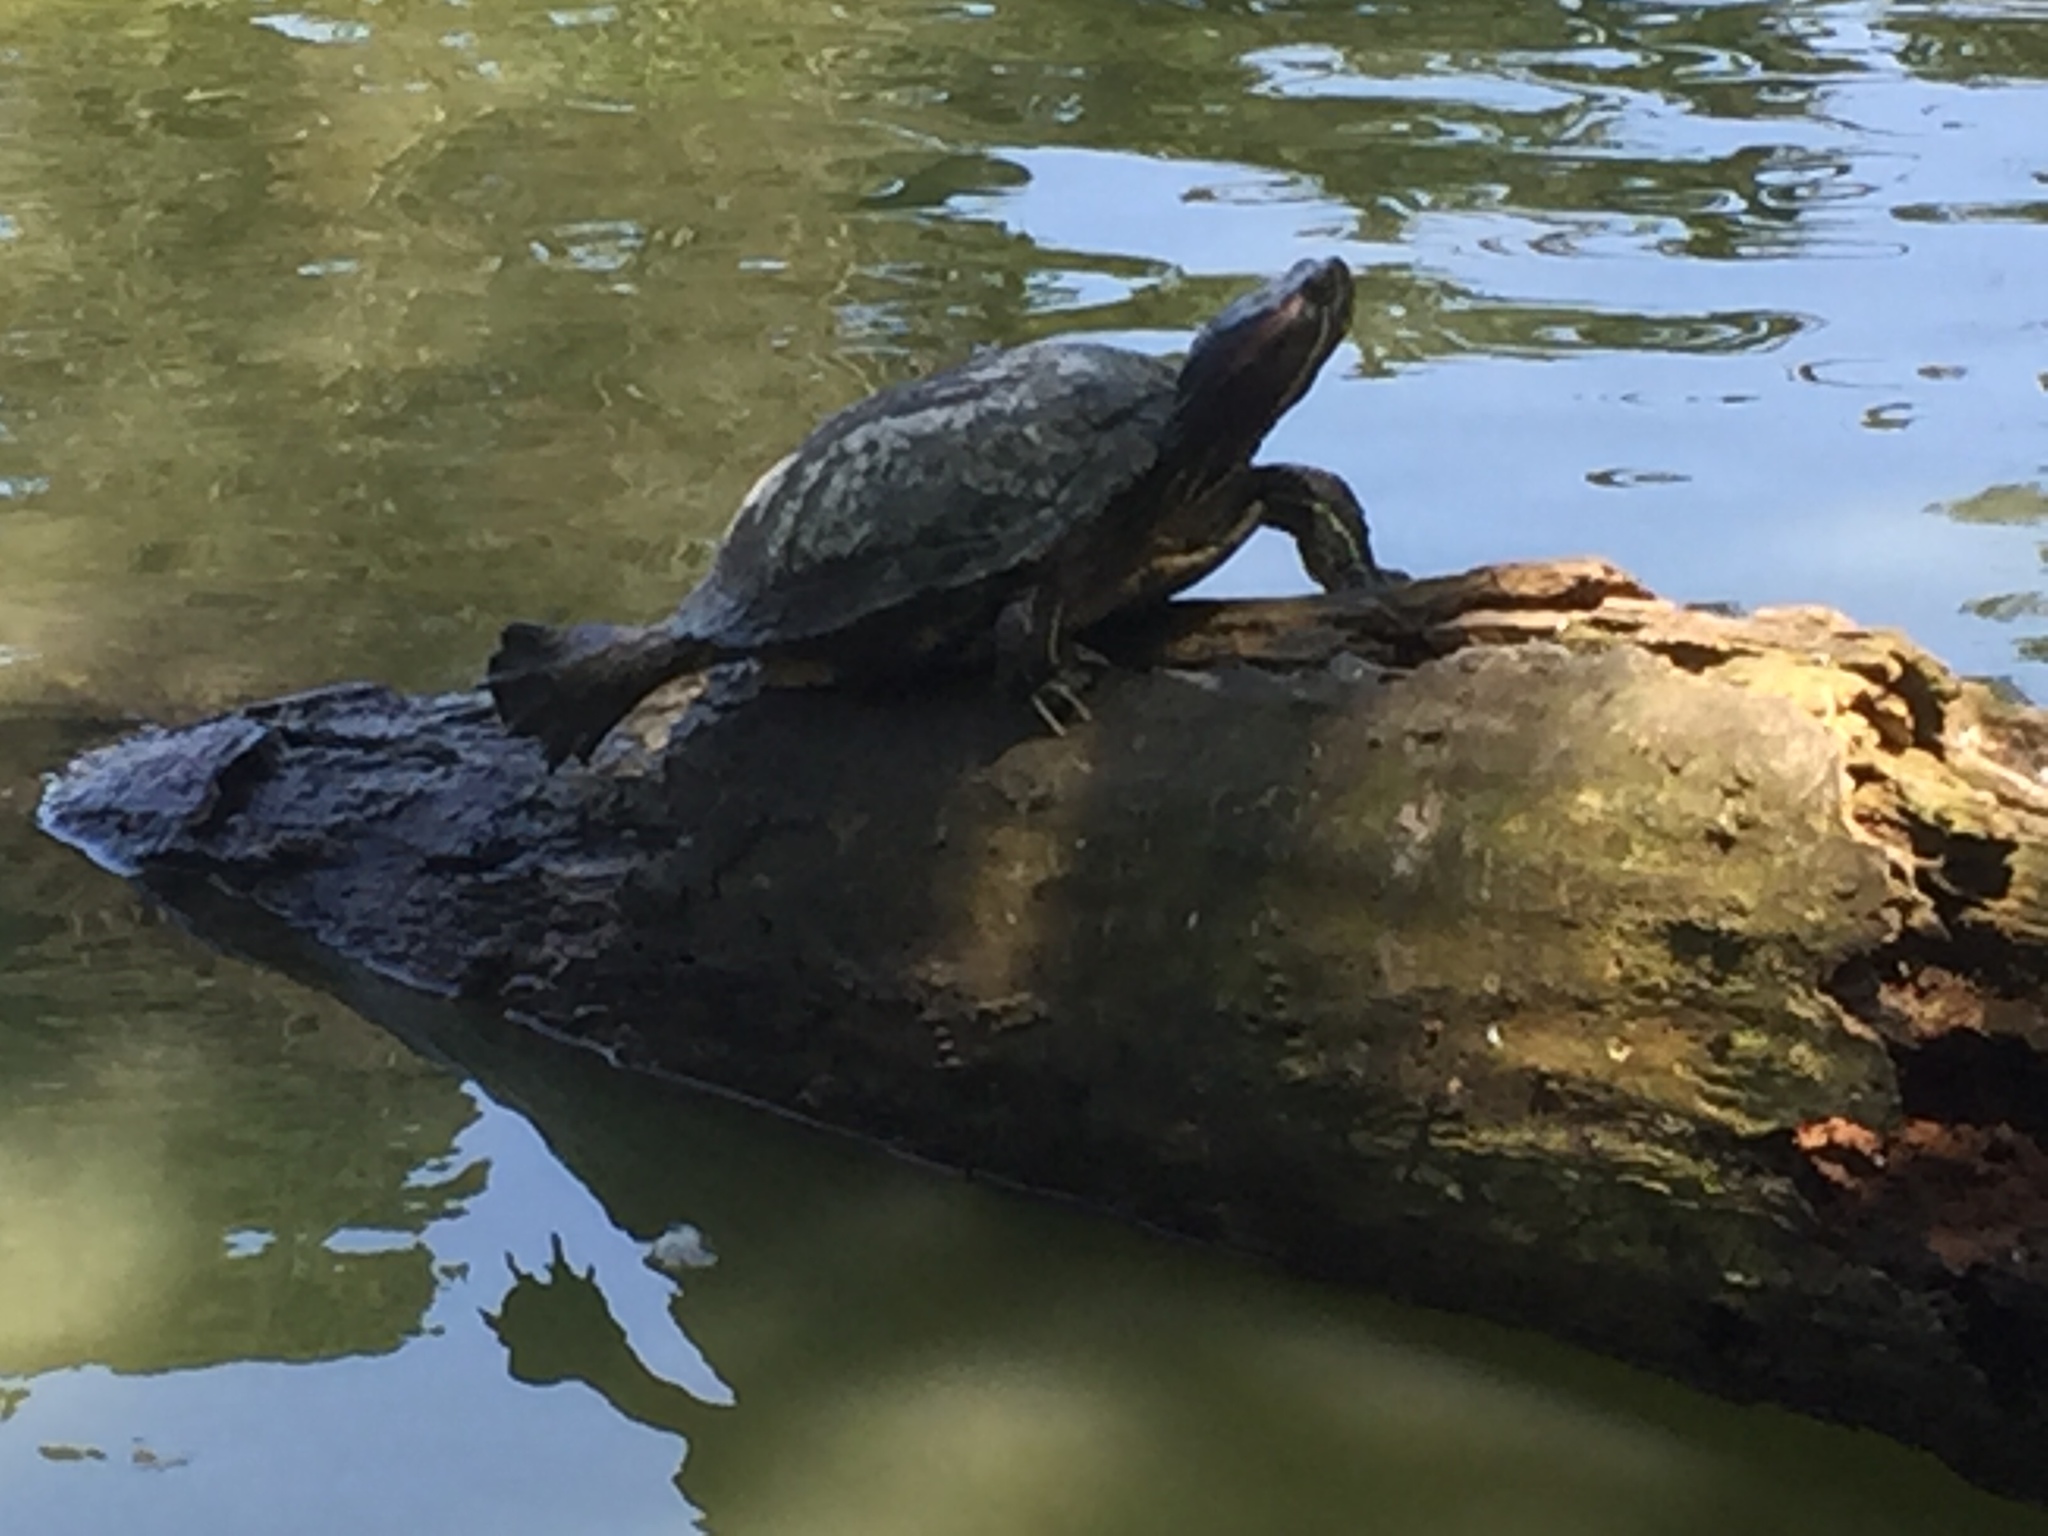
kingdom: Animalia
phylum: Chordata
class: Testudines
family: Emydidae
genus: Trachemys
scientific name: Trachemys scripta
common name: Slider
